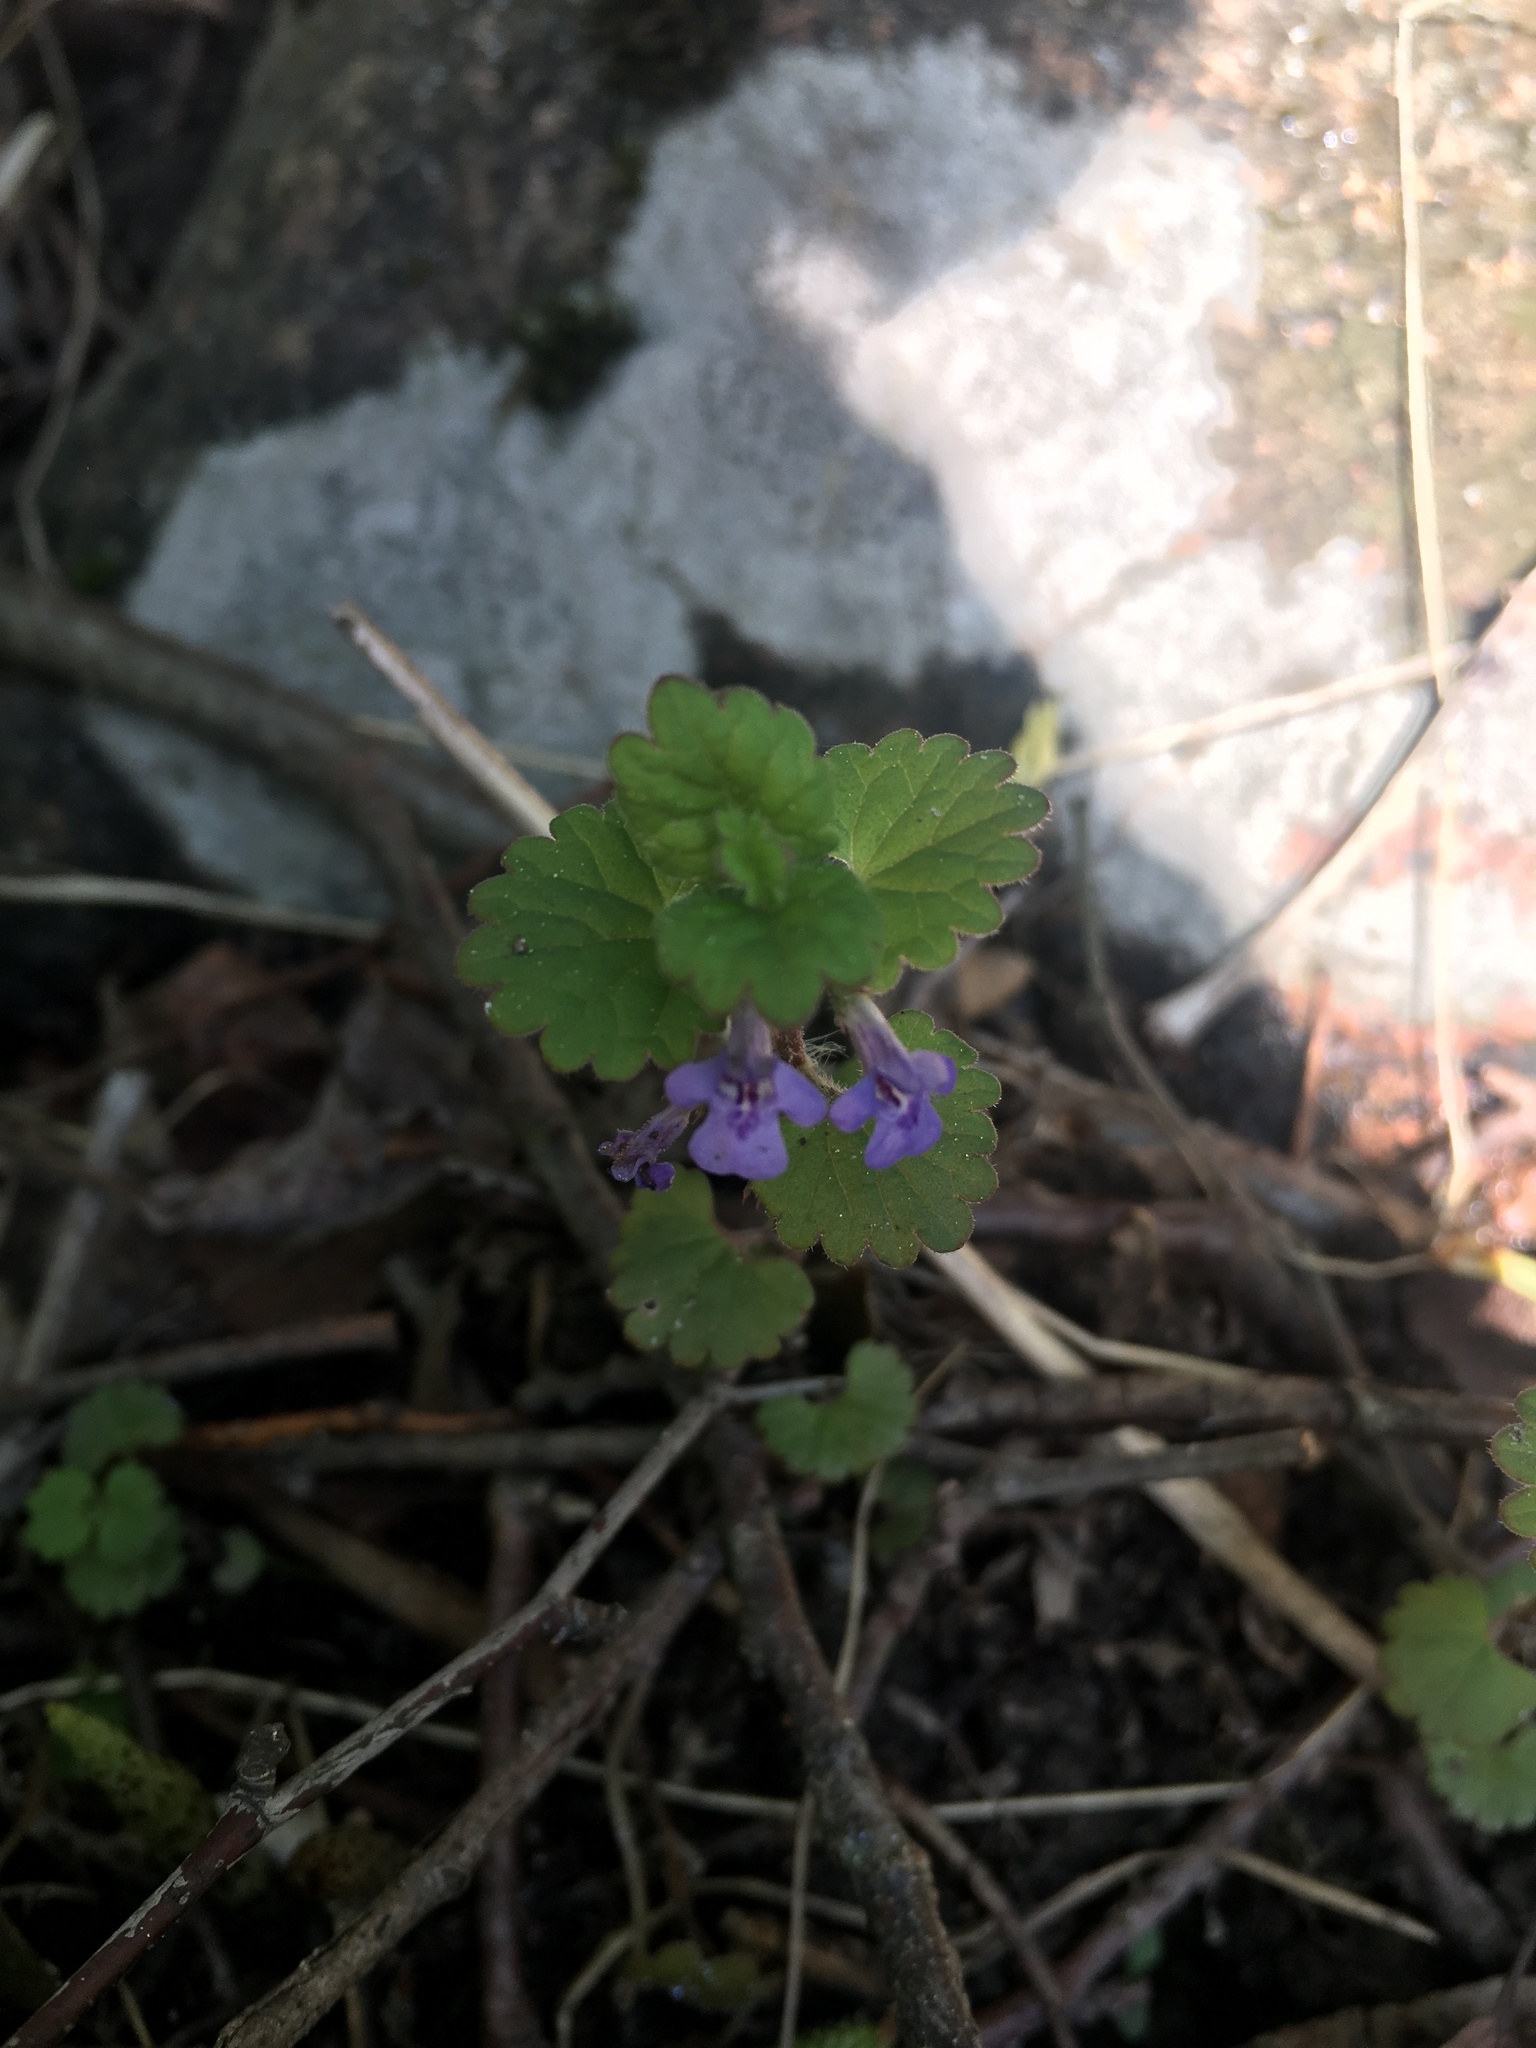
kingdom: Plantae
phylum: Tracheophyta
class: Magnoliopsida
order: Lamiales
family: Lamiaceae
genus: Glechoma
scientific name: Glechoma hederacea
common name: Ground ivy
